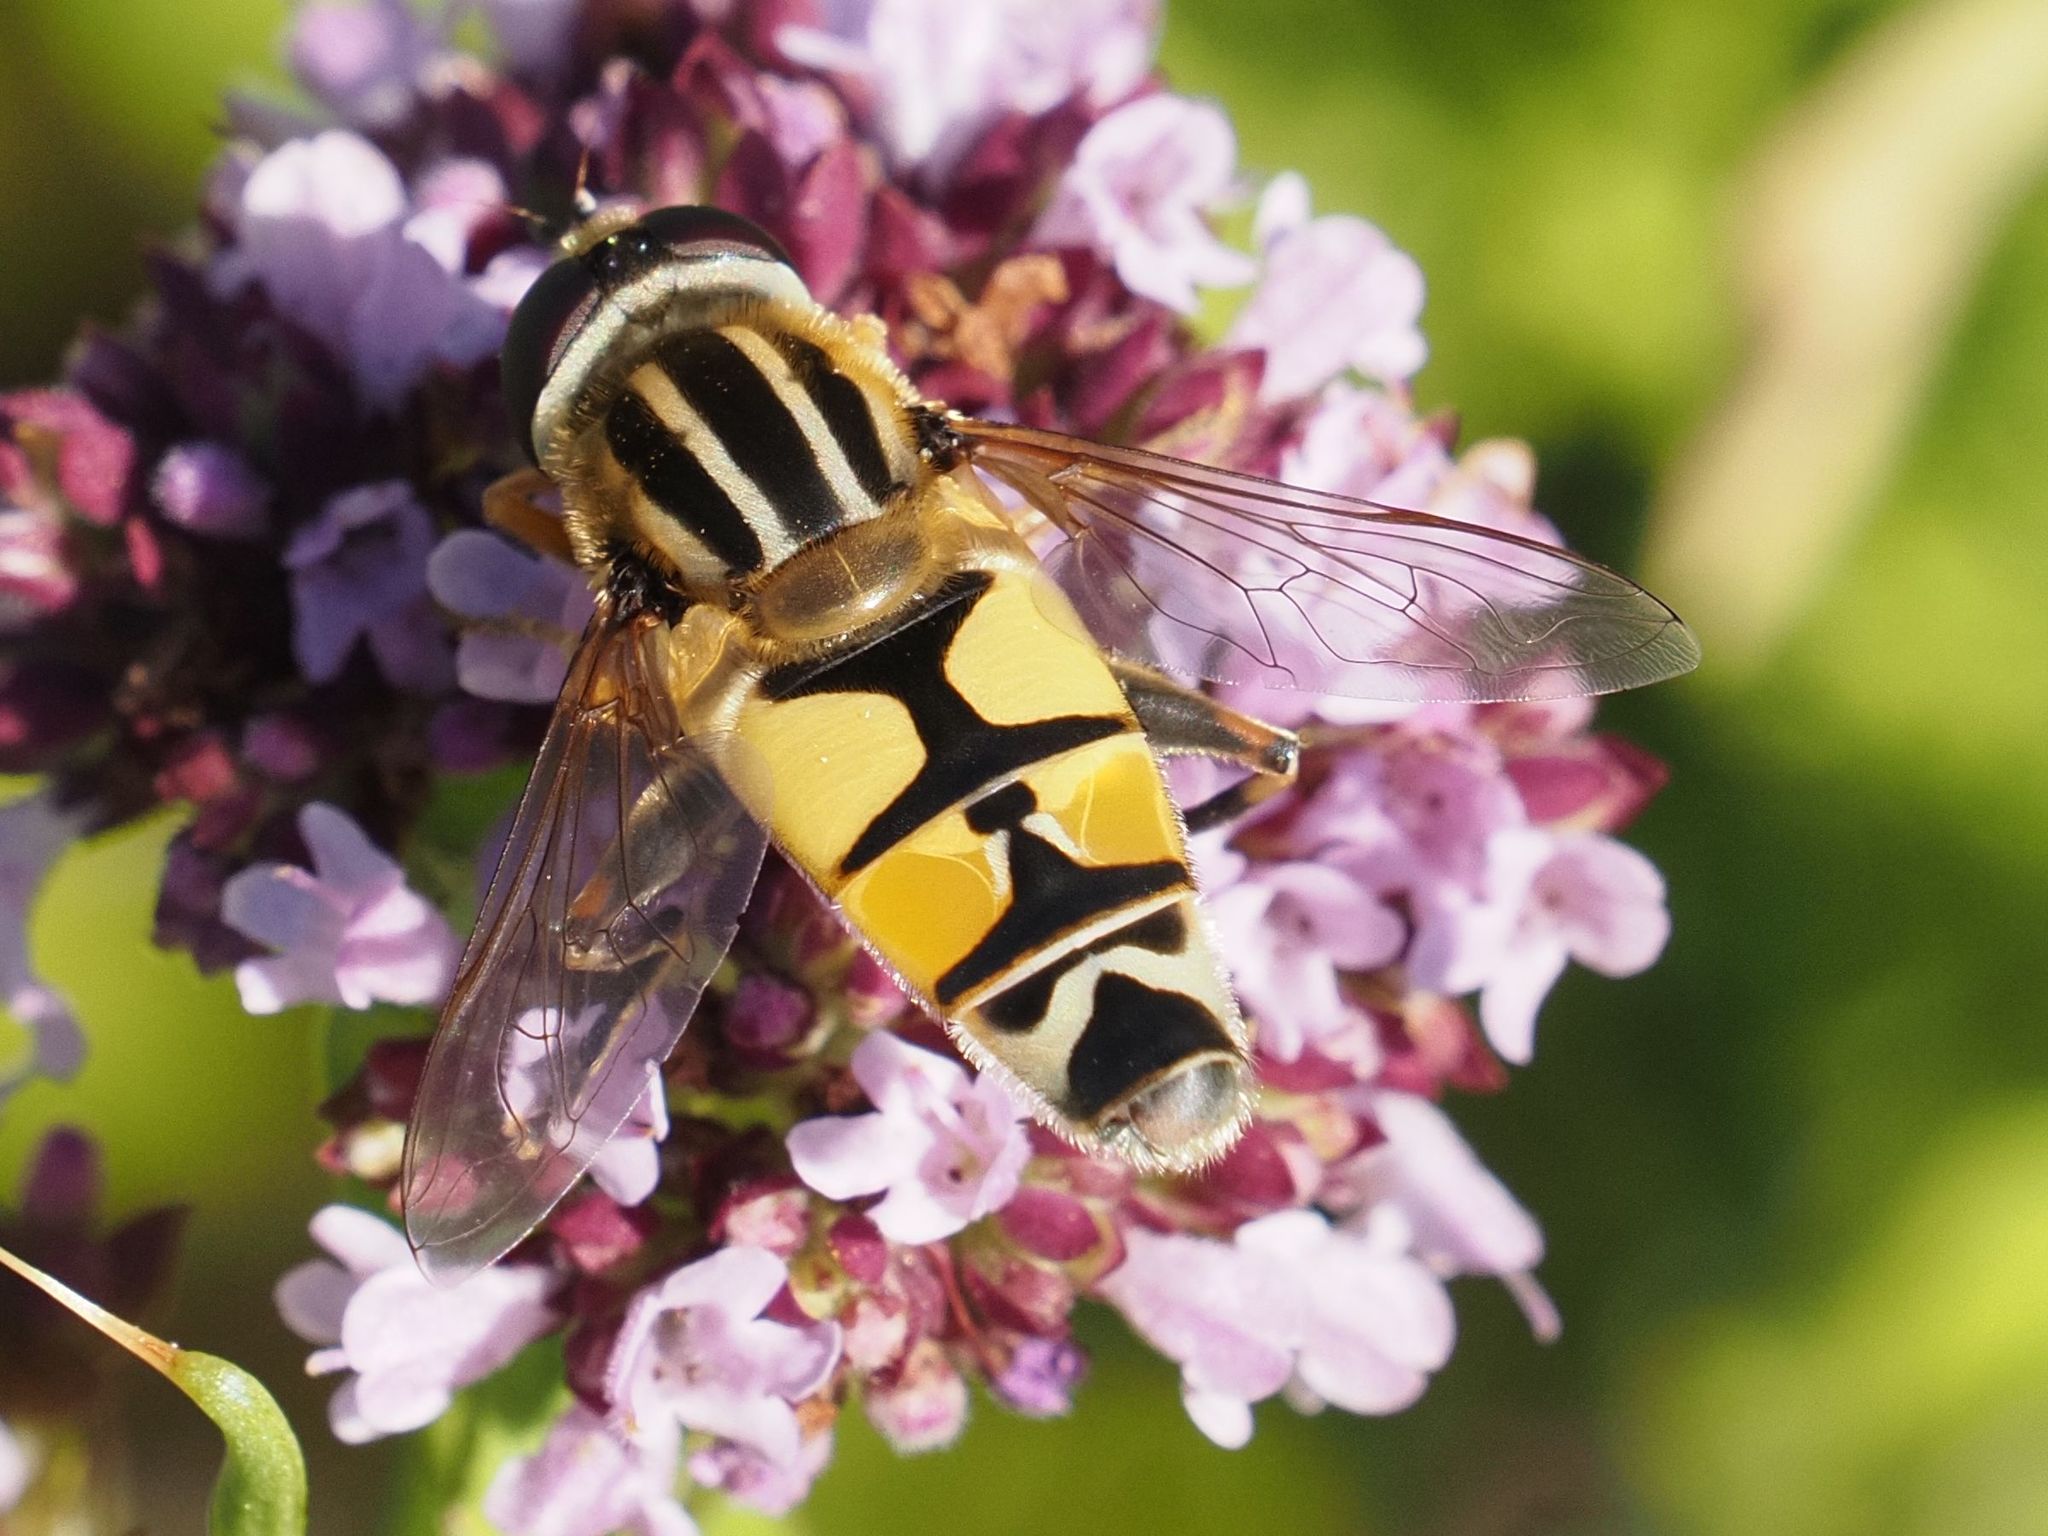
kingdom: Animalia
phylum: Arthropoda
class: Insecta
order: Diptera
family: Syrphidae
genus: Helophilus
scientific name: Helophilus trivittatus
